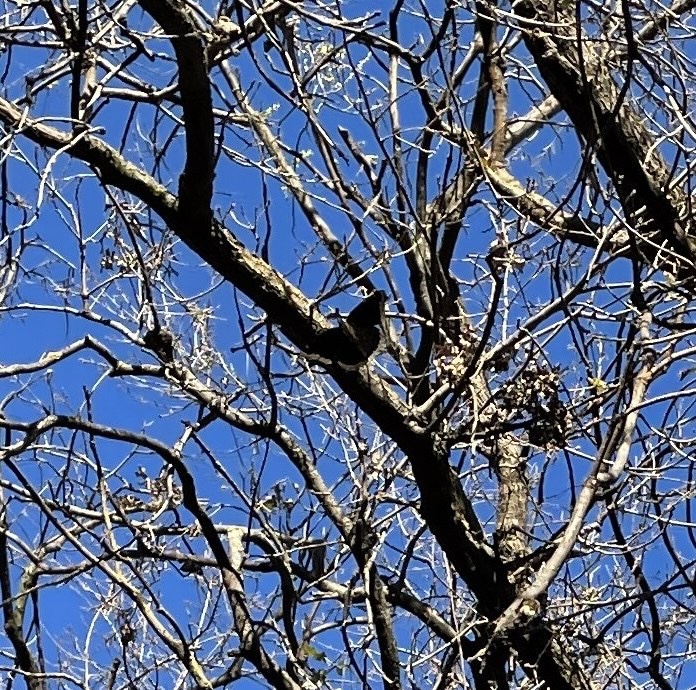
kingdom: Animalia
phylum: Arthropoda
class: Insecta
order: Lepidoptera
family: Nymphalidae
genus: Nymphalis
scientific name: Nymphalis antiopa
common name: Camberwell beauty
